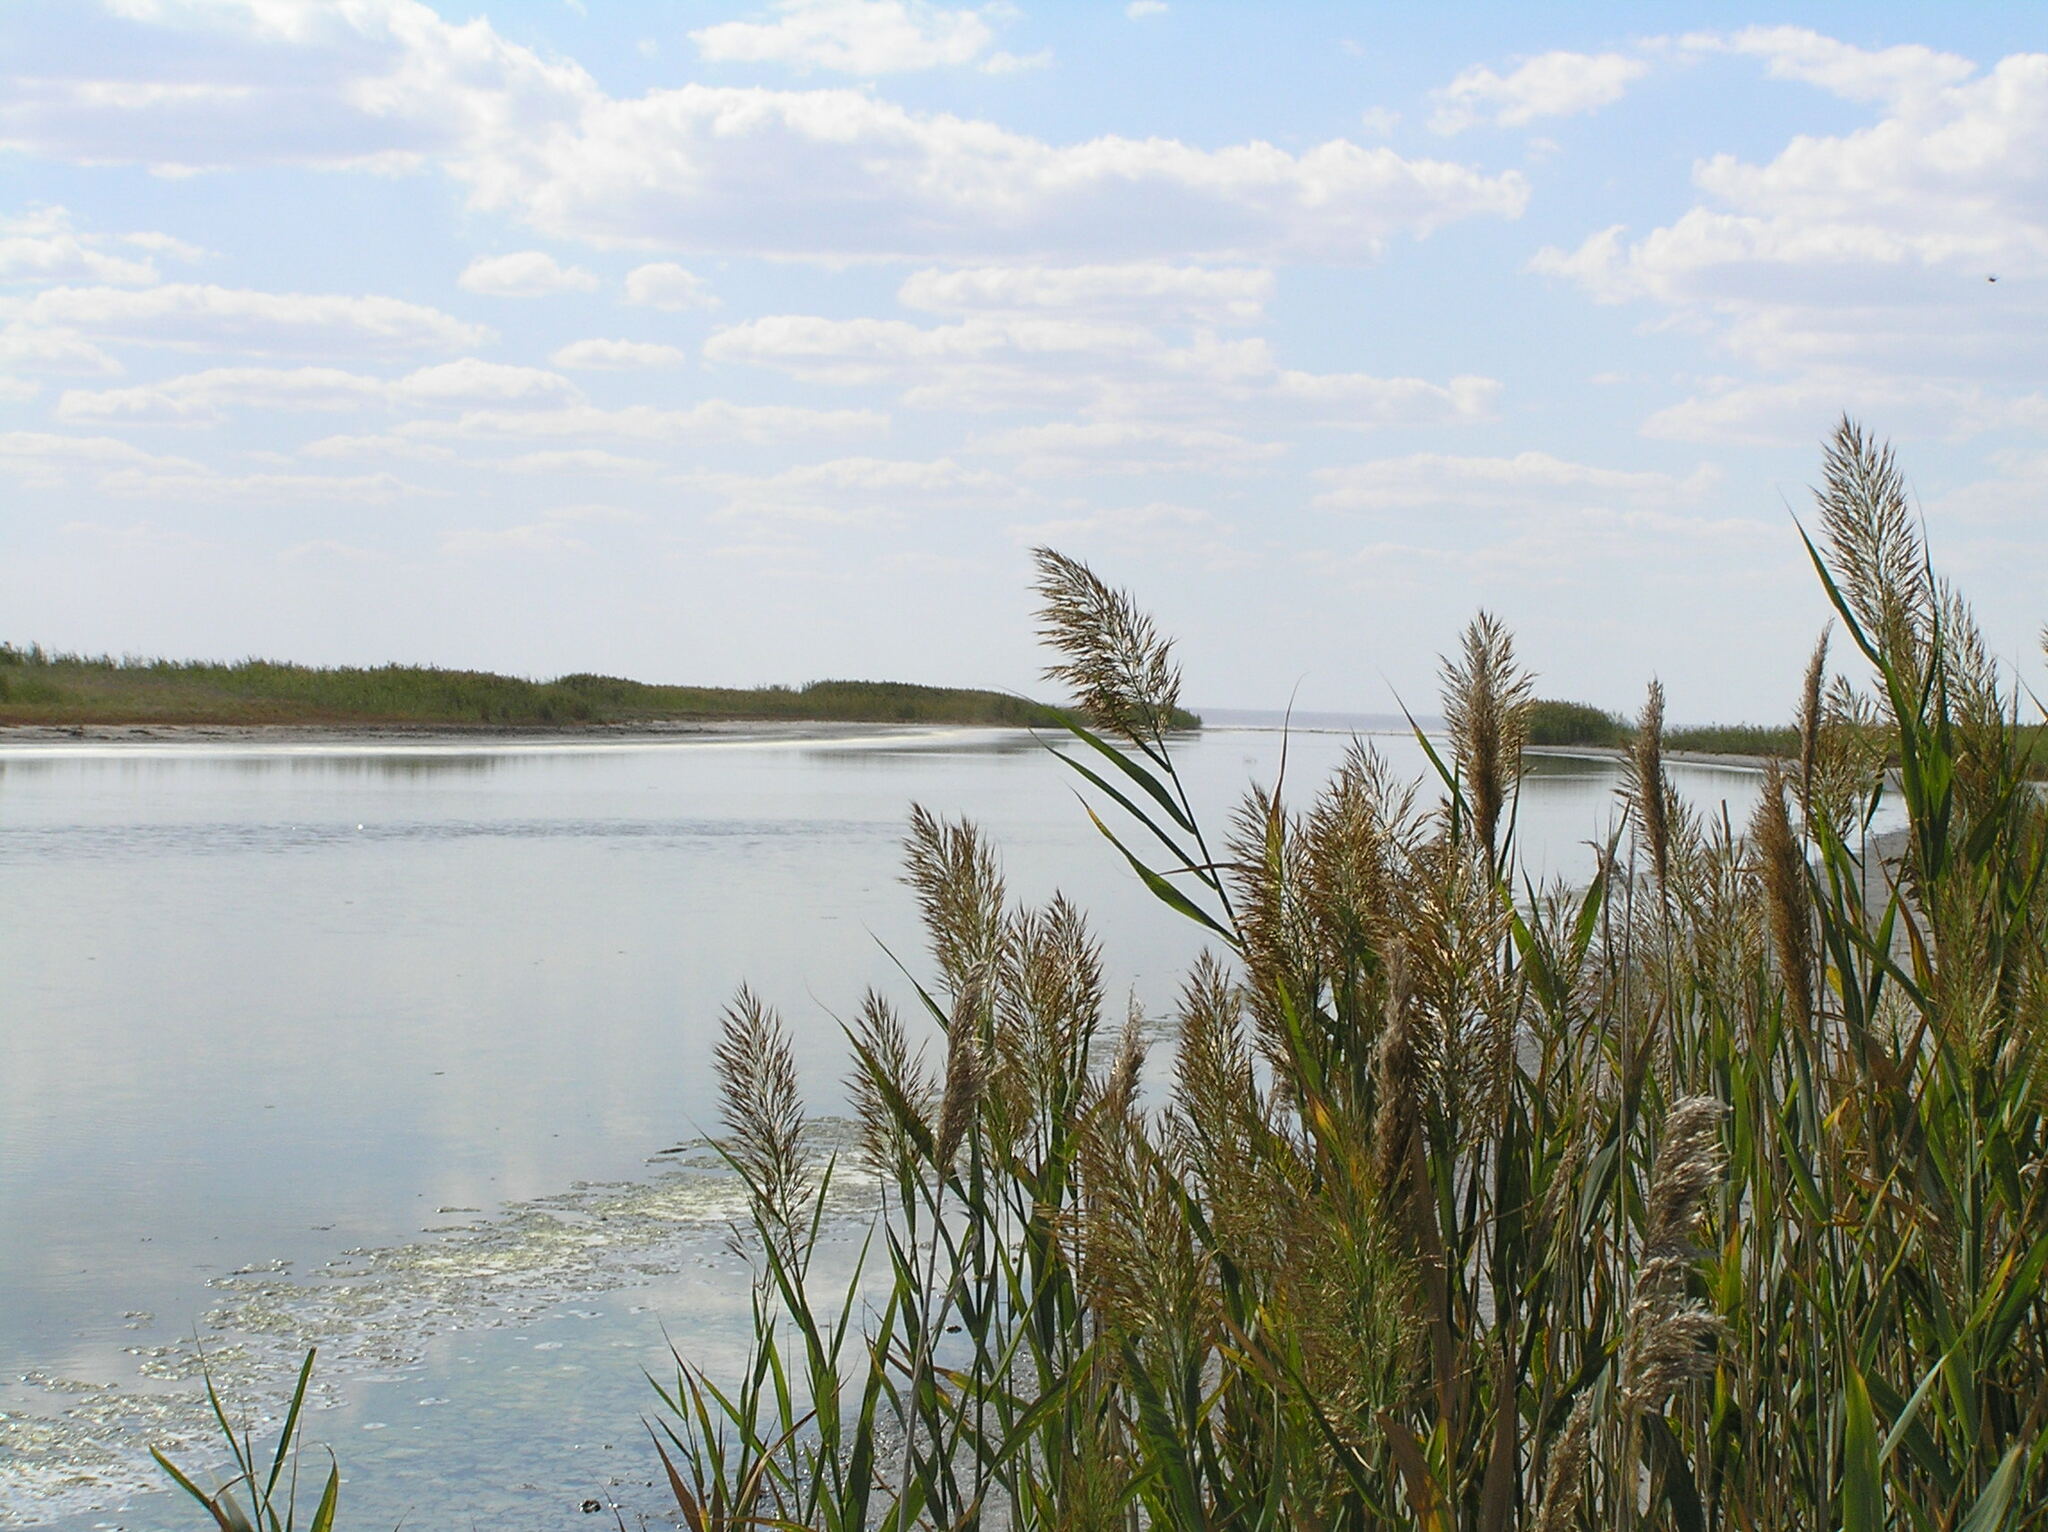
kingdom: Plantae
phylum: Tracheophyta
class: Liliopsida
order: Poales
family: Poaceae
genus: Phragmites
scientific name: Phragmites australis
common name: Common reed
